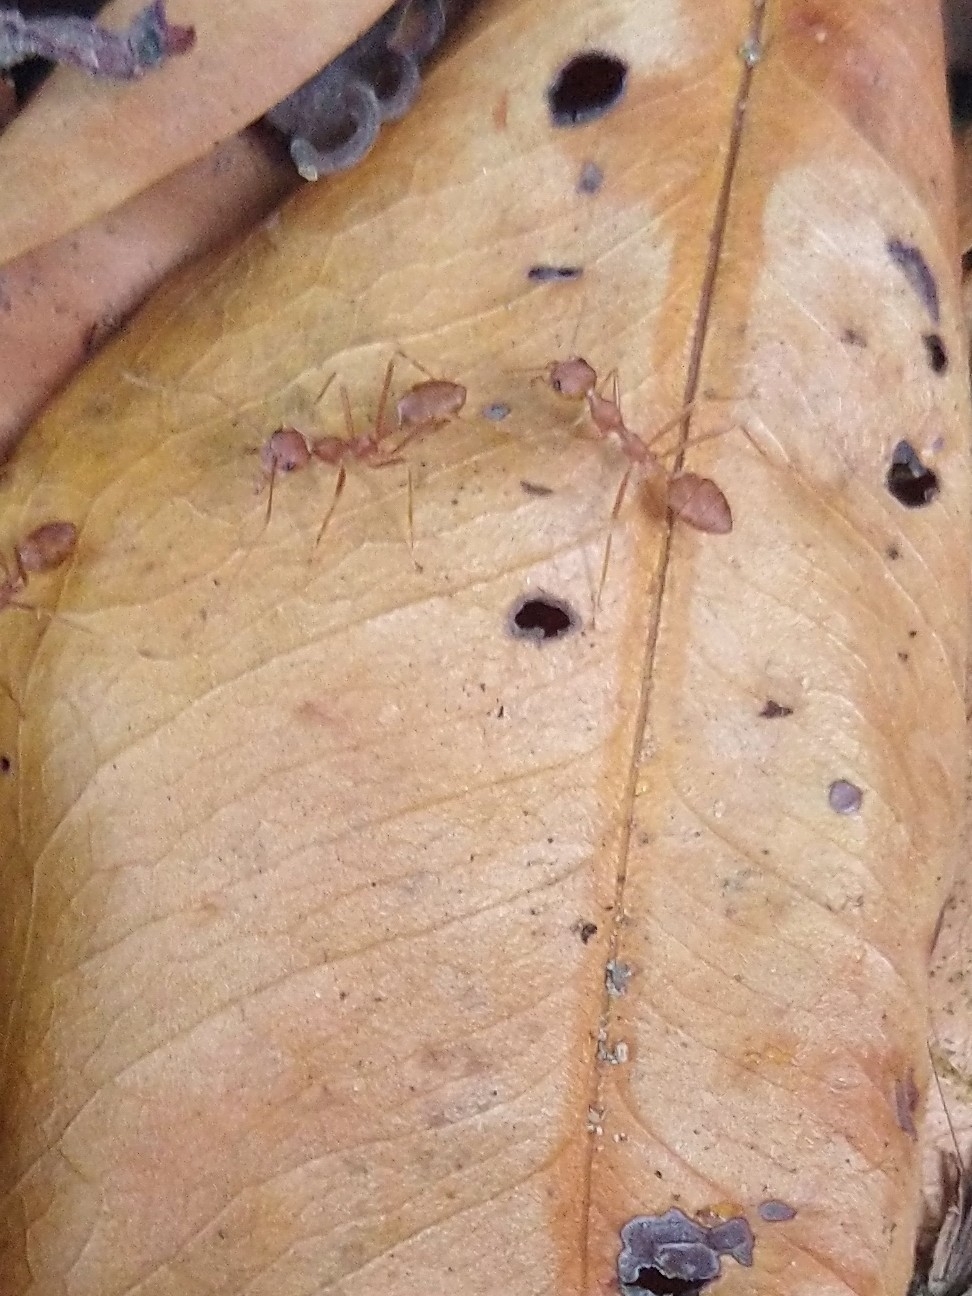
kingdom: Animalia
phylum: Arthropoda
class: Insecta
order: Hymenoptera
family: Formicidae
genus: Oecophylla
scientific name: Oecophylla smaragdina
